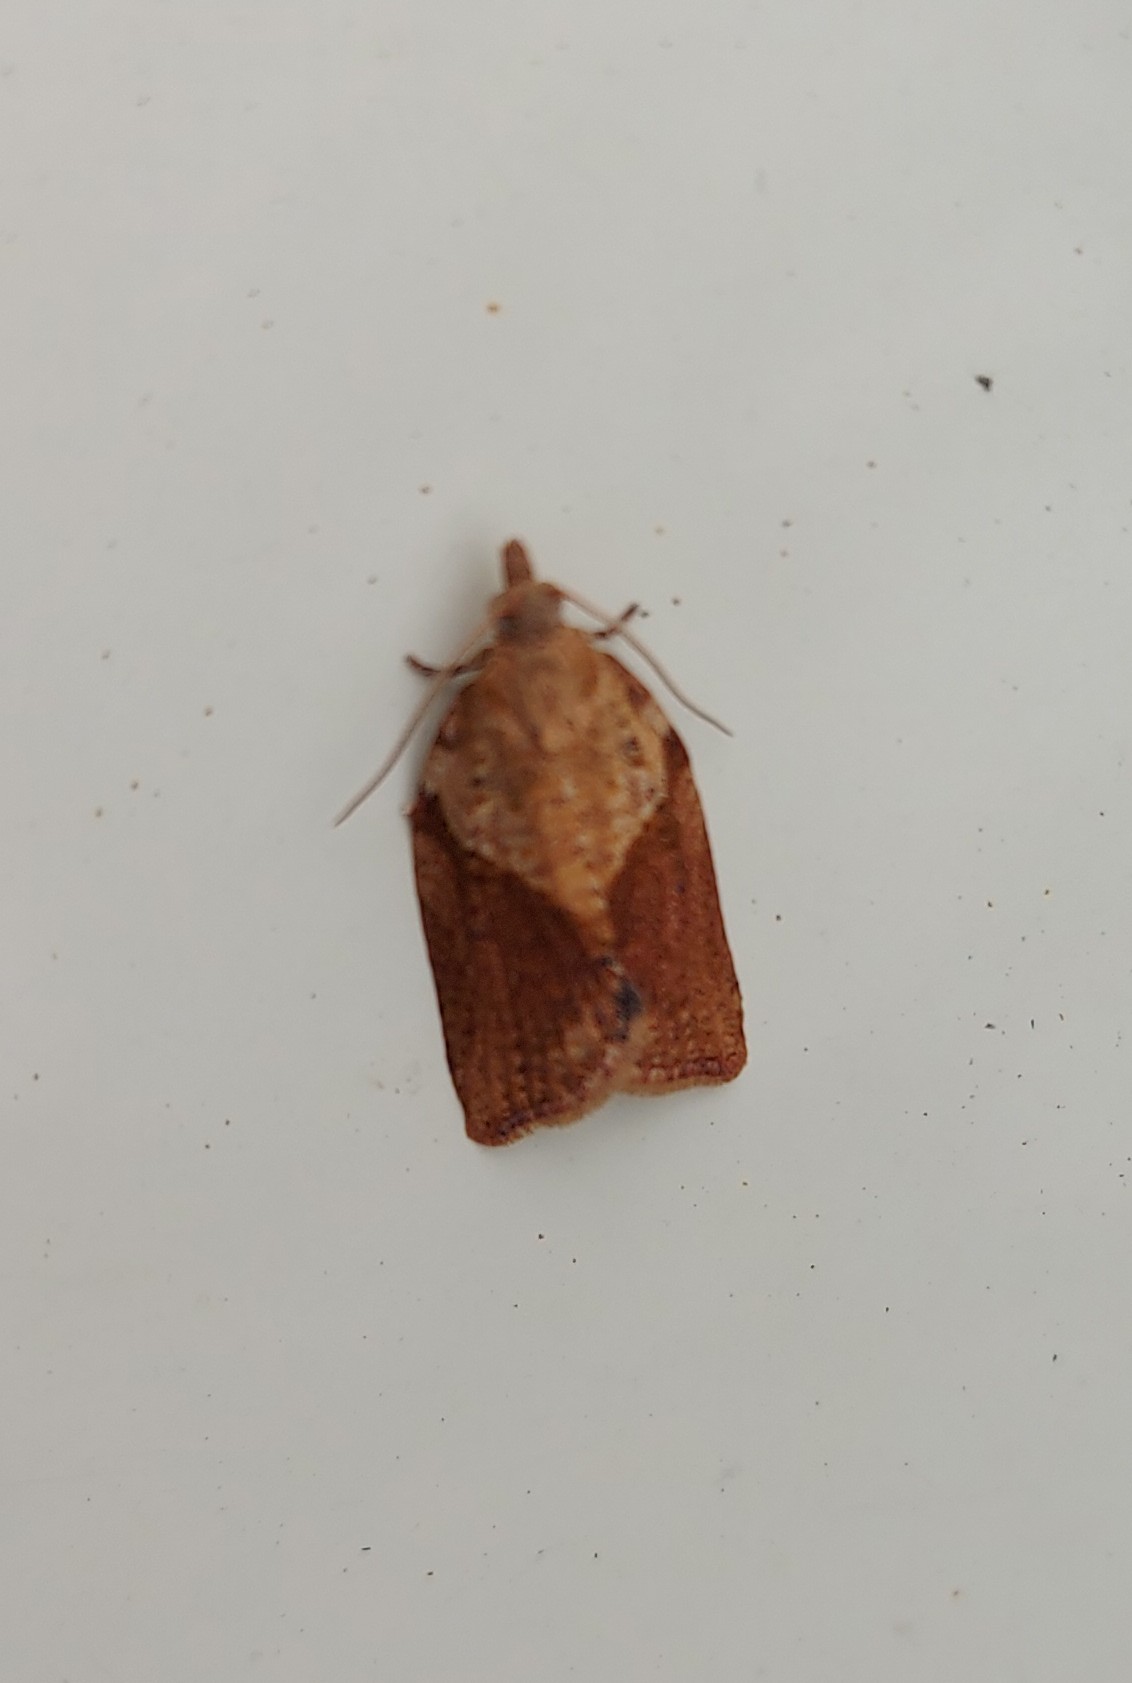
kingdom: Animalia
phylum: Arthropoda
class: Insecta
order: Lepidoptera
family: Tortricidae
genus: Epiphyas
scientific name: Epiphyas postvittana
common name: Light brown apple moth
